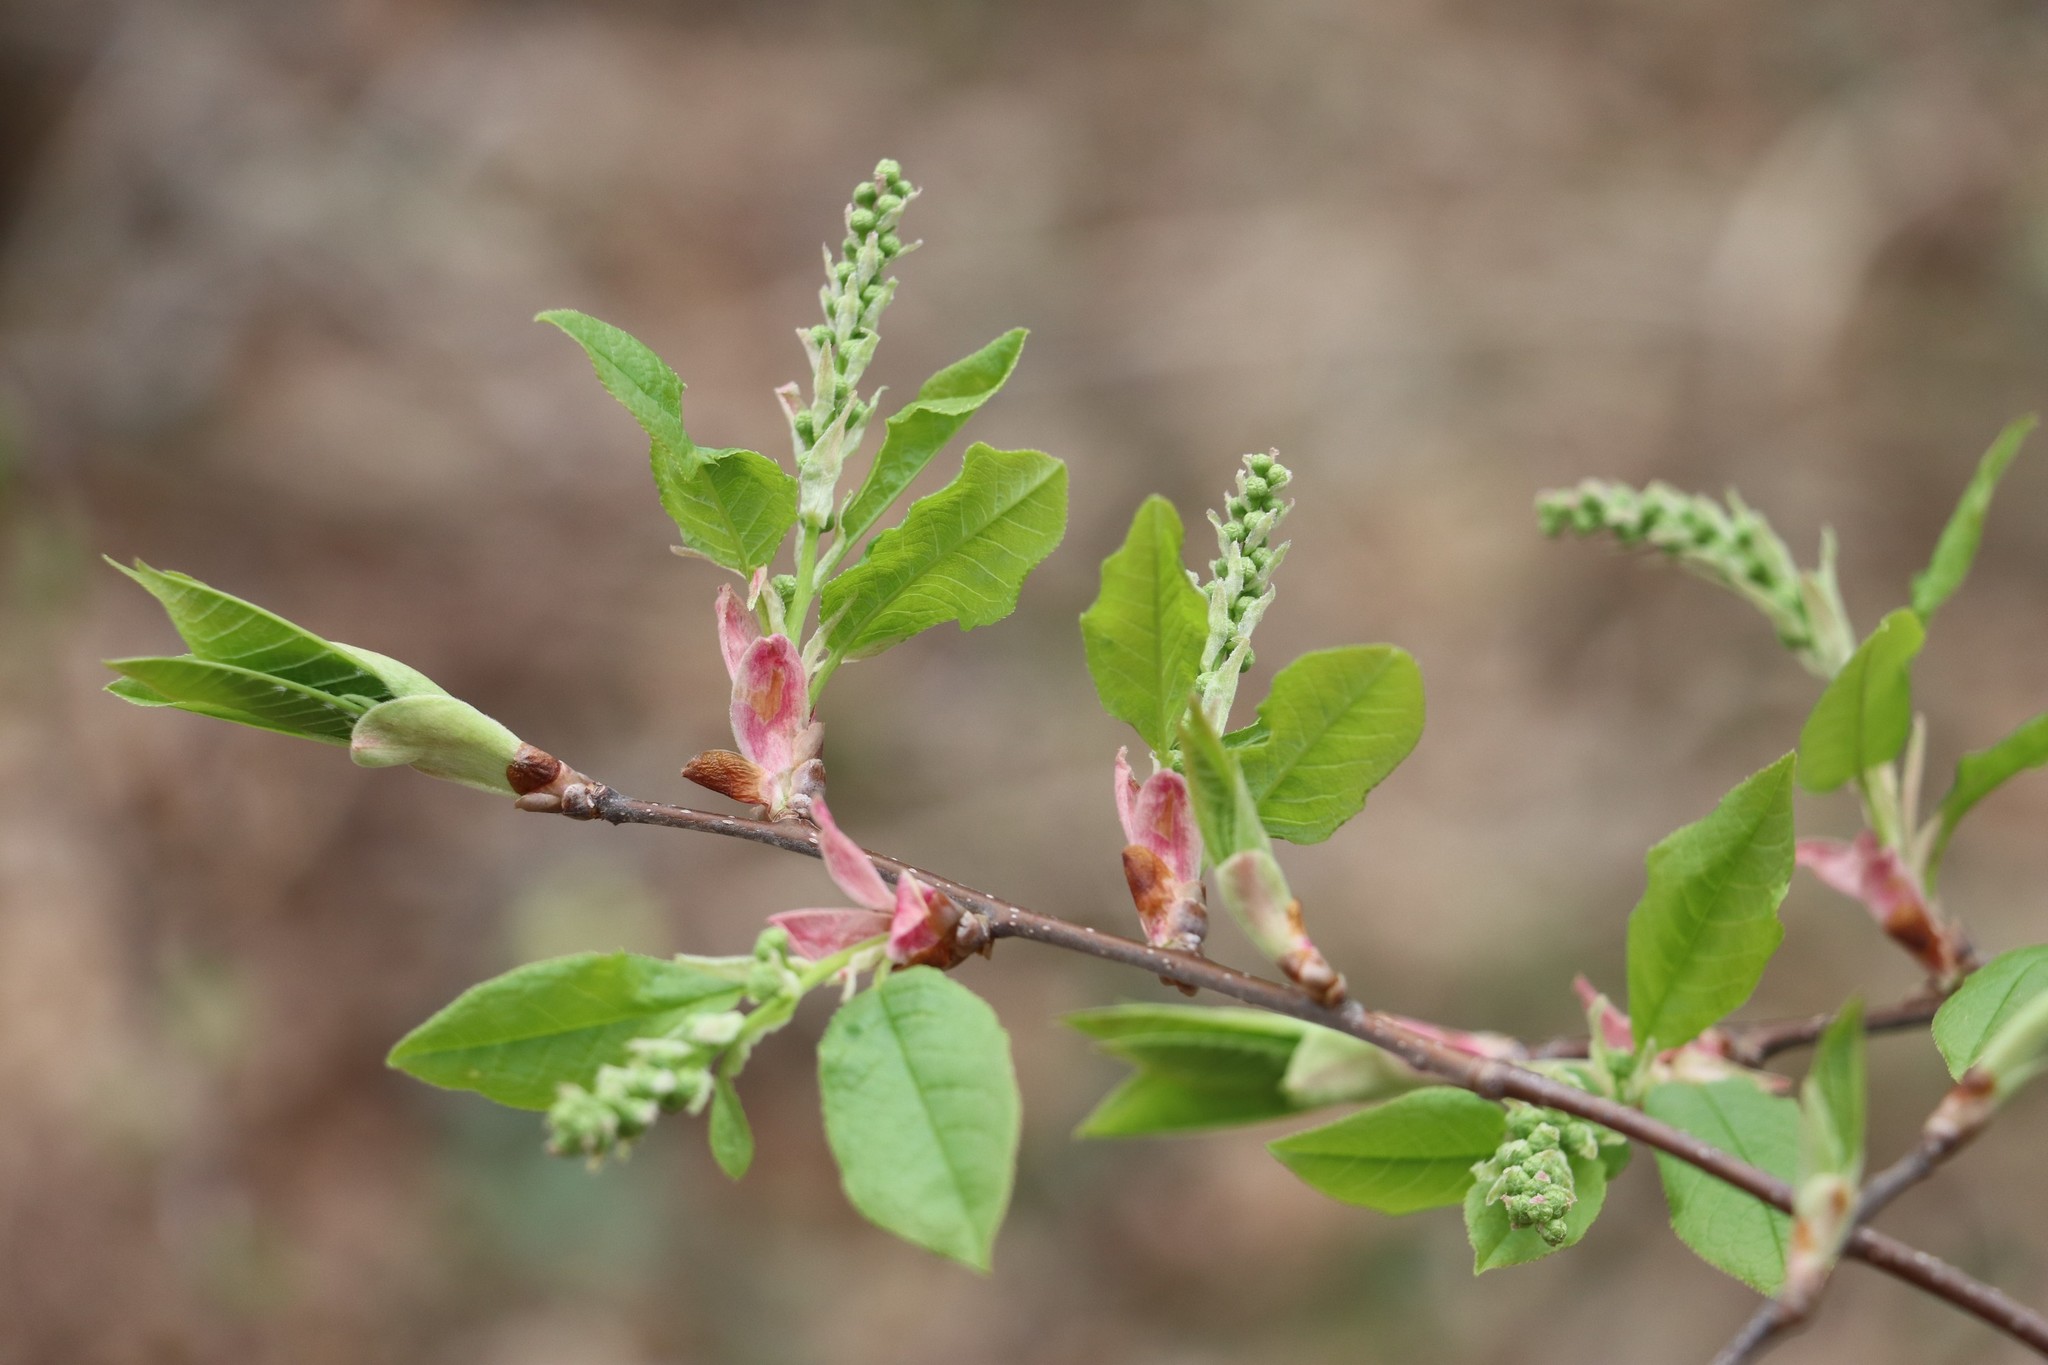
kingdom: Plantae
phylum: Tracheophyta
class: Magnoliopsida
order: Rosales
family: Rosaceae
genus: Prunus
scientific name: Prunus padus
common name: Bird cherry
